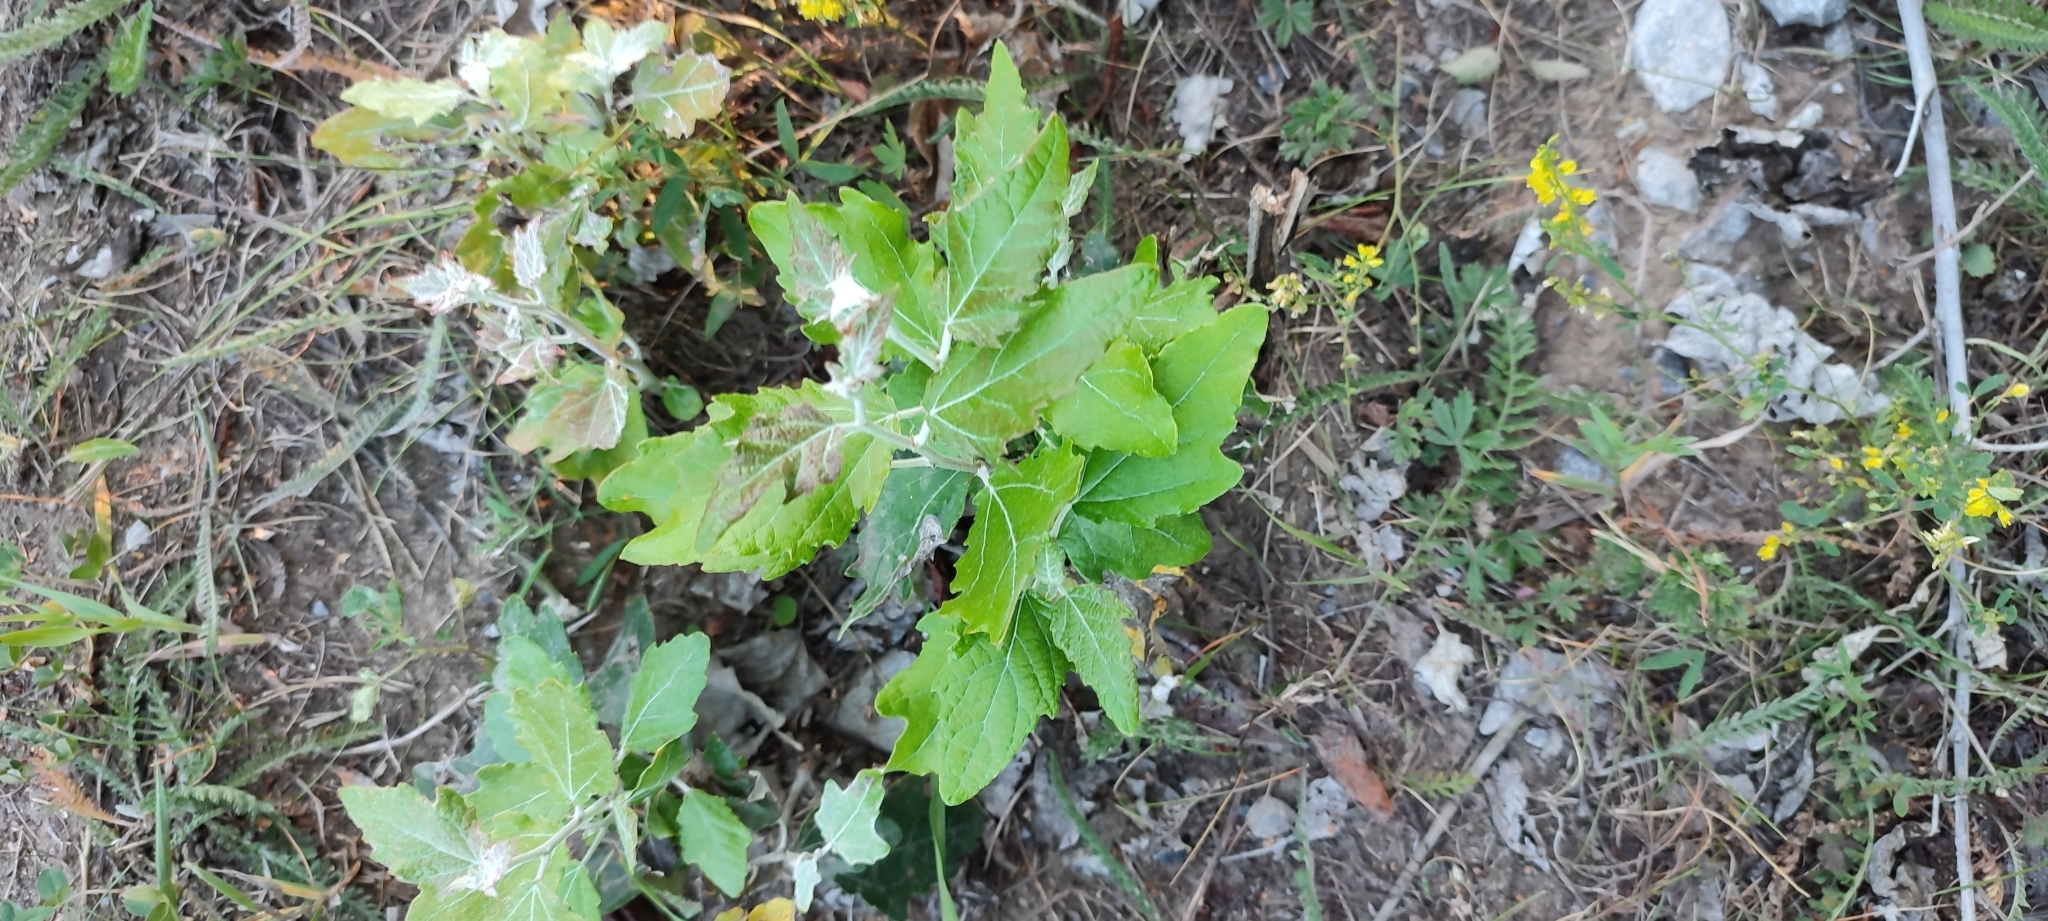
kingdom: Plantae
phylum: Tracheophyta
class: Magnoliopsida
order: Malpighiales
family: Salicaceae
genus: Populus
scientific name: Populus alba
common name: White poplar
